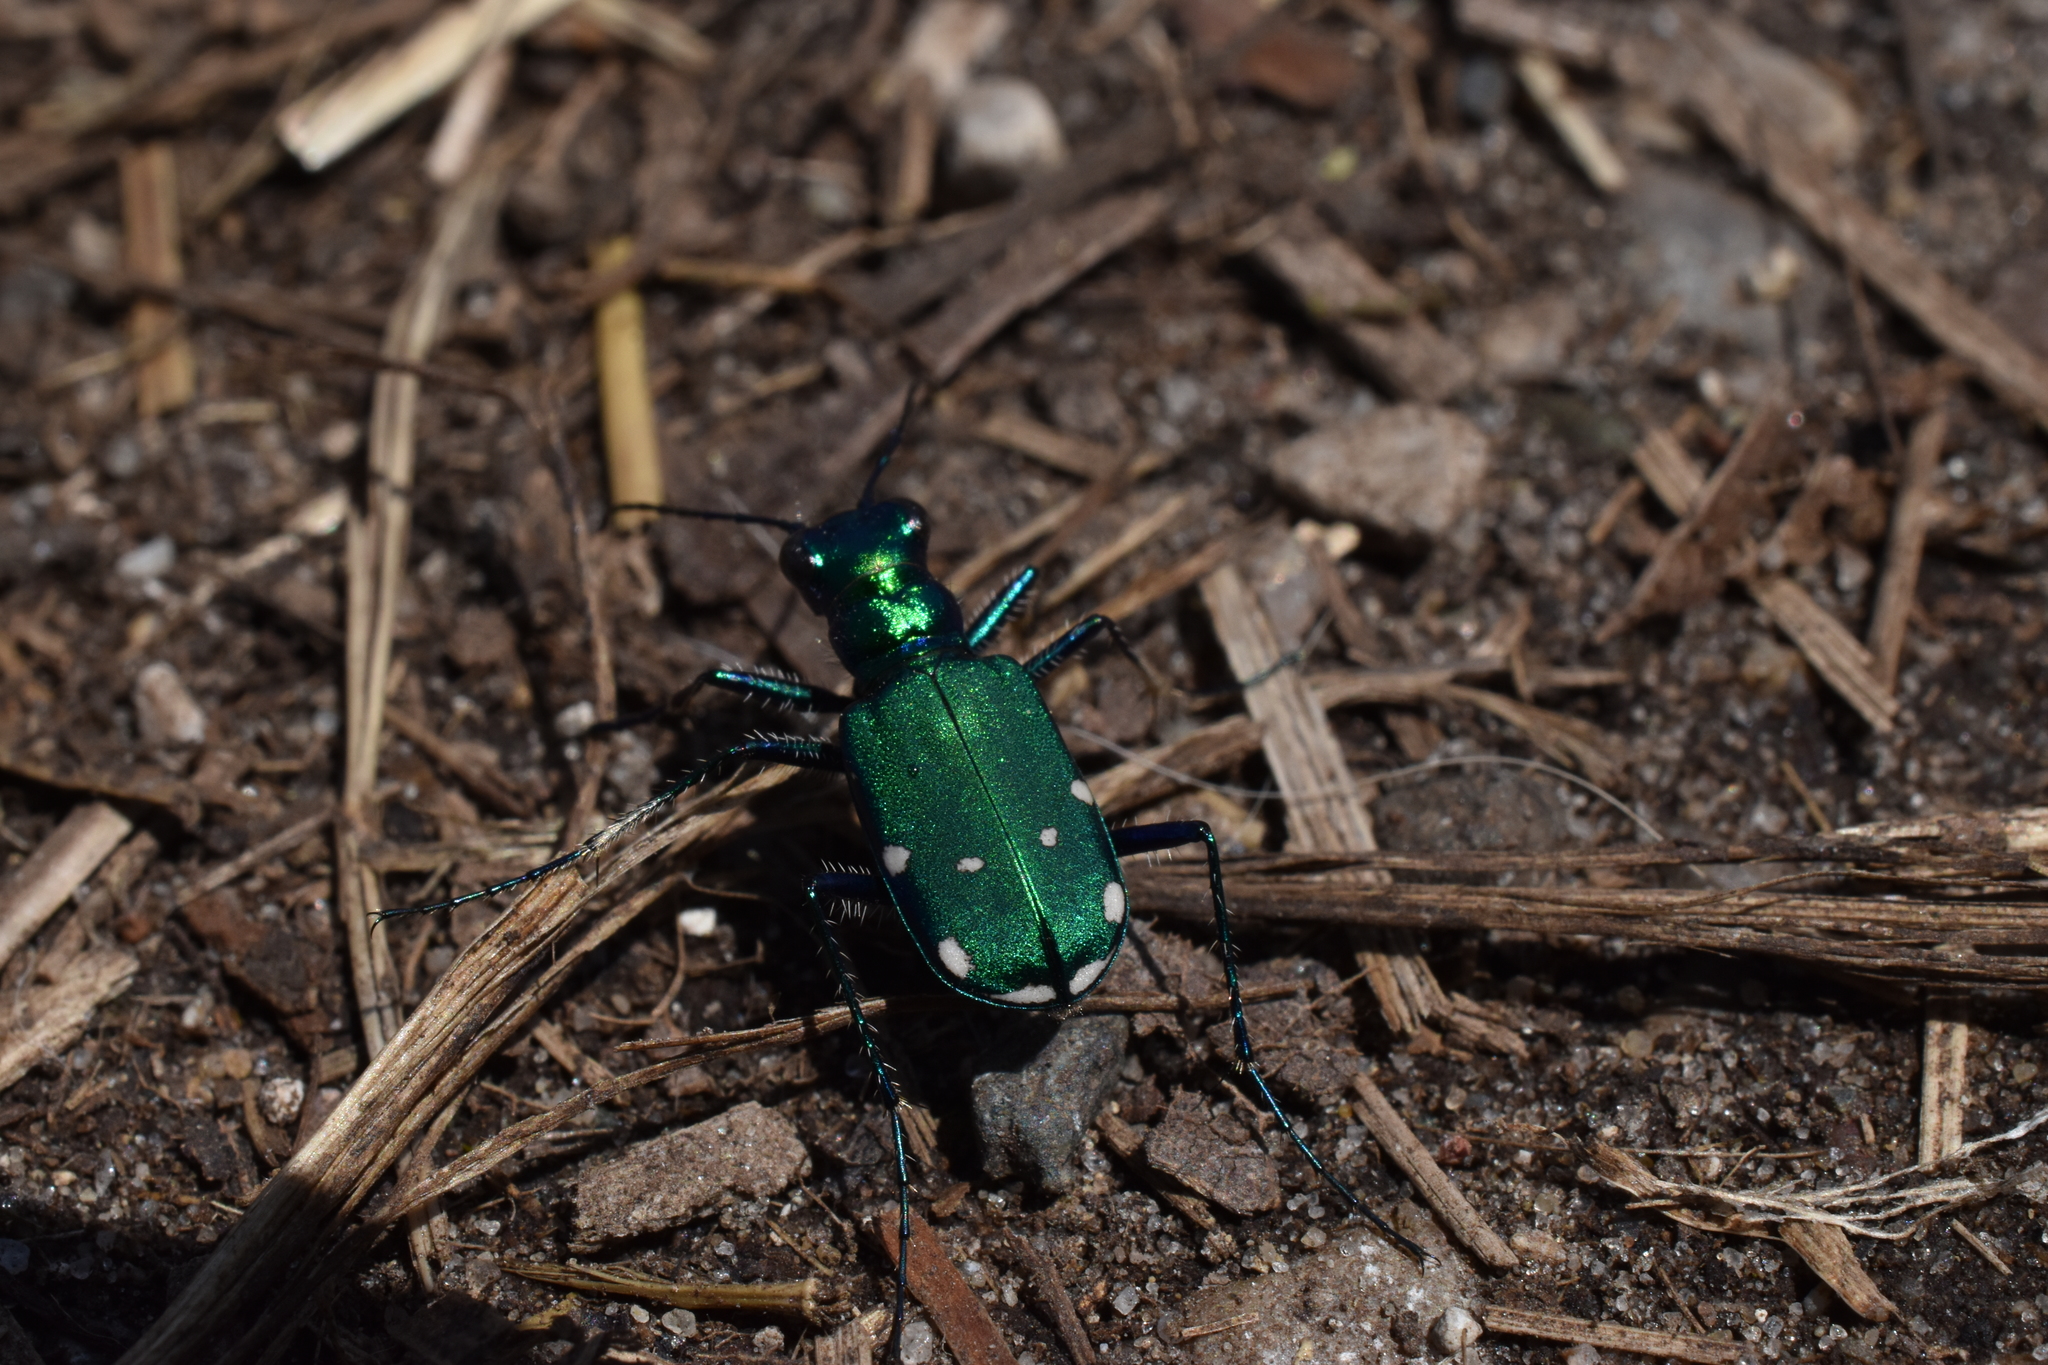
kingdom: Animalia
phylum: Arthropoda
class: Insecta
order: Coleoptera
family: Carabidae
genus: Cicindela
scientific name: Cicindela sexguttata
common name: Six-spotted tiger beetle
